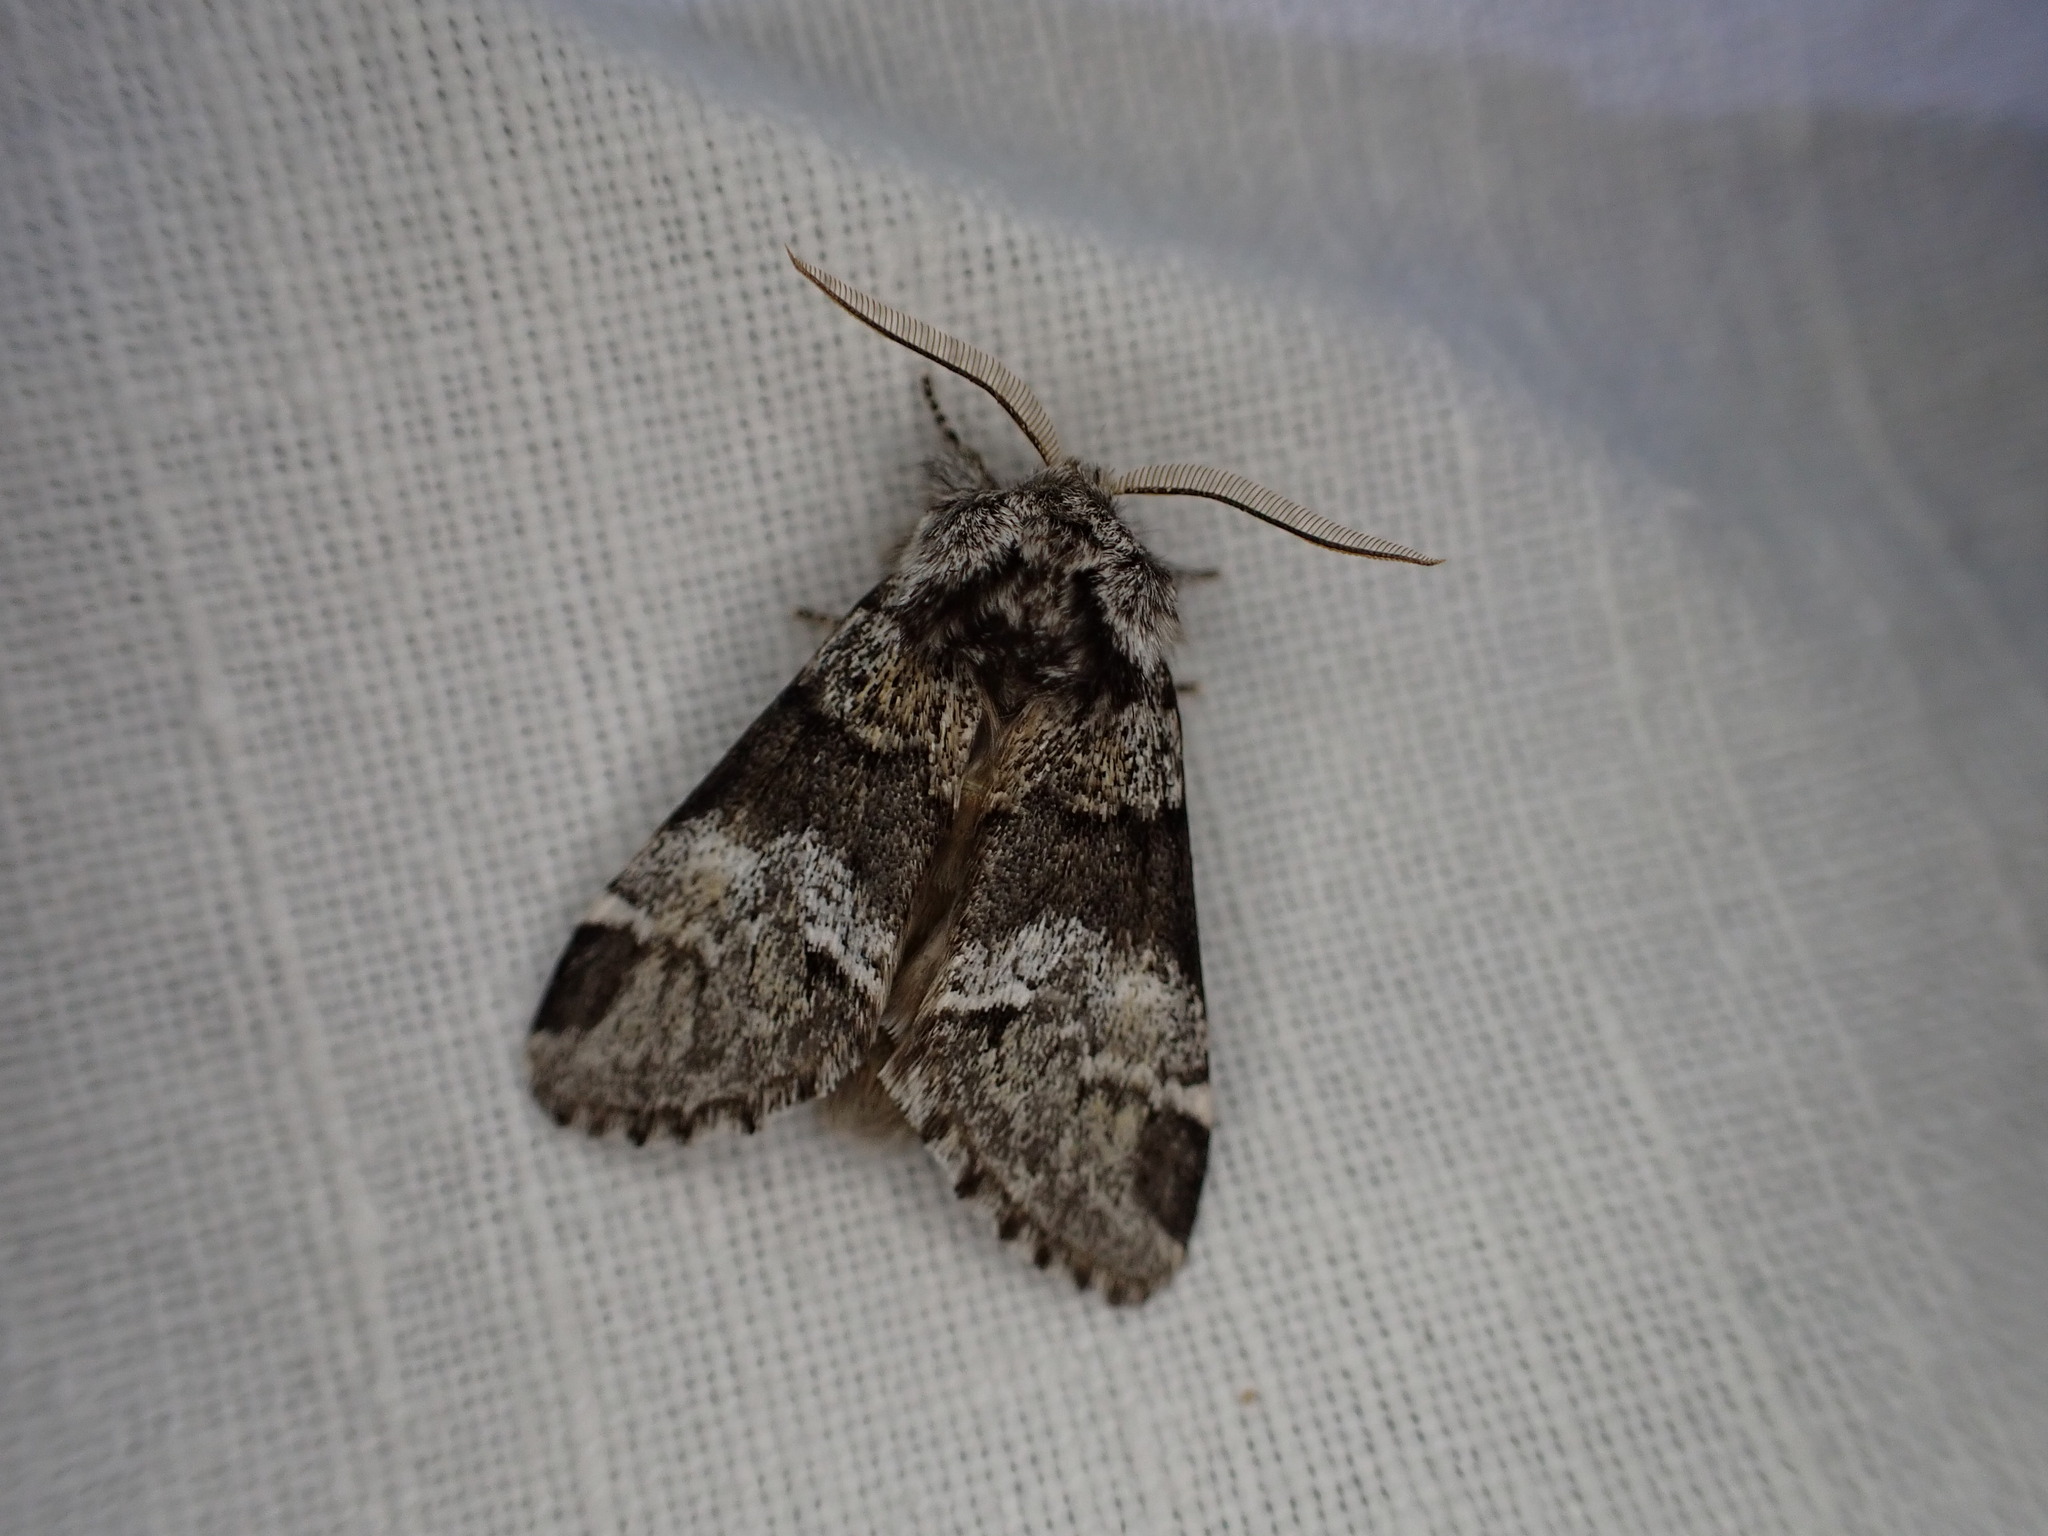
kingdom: Animalia
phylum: Arthropoda
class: Insecta
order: Lepidoptera
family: Notodontidae
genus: Drymonia
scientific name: Drymonia dodonaea
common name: Marbled brown
